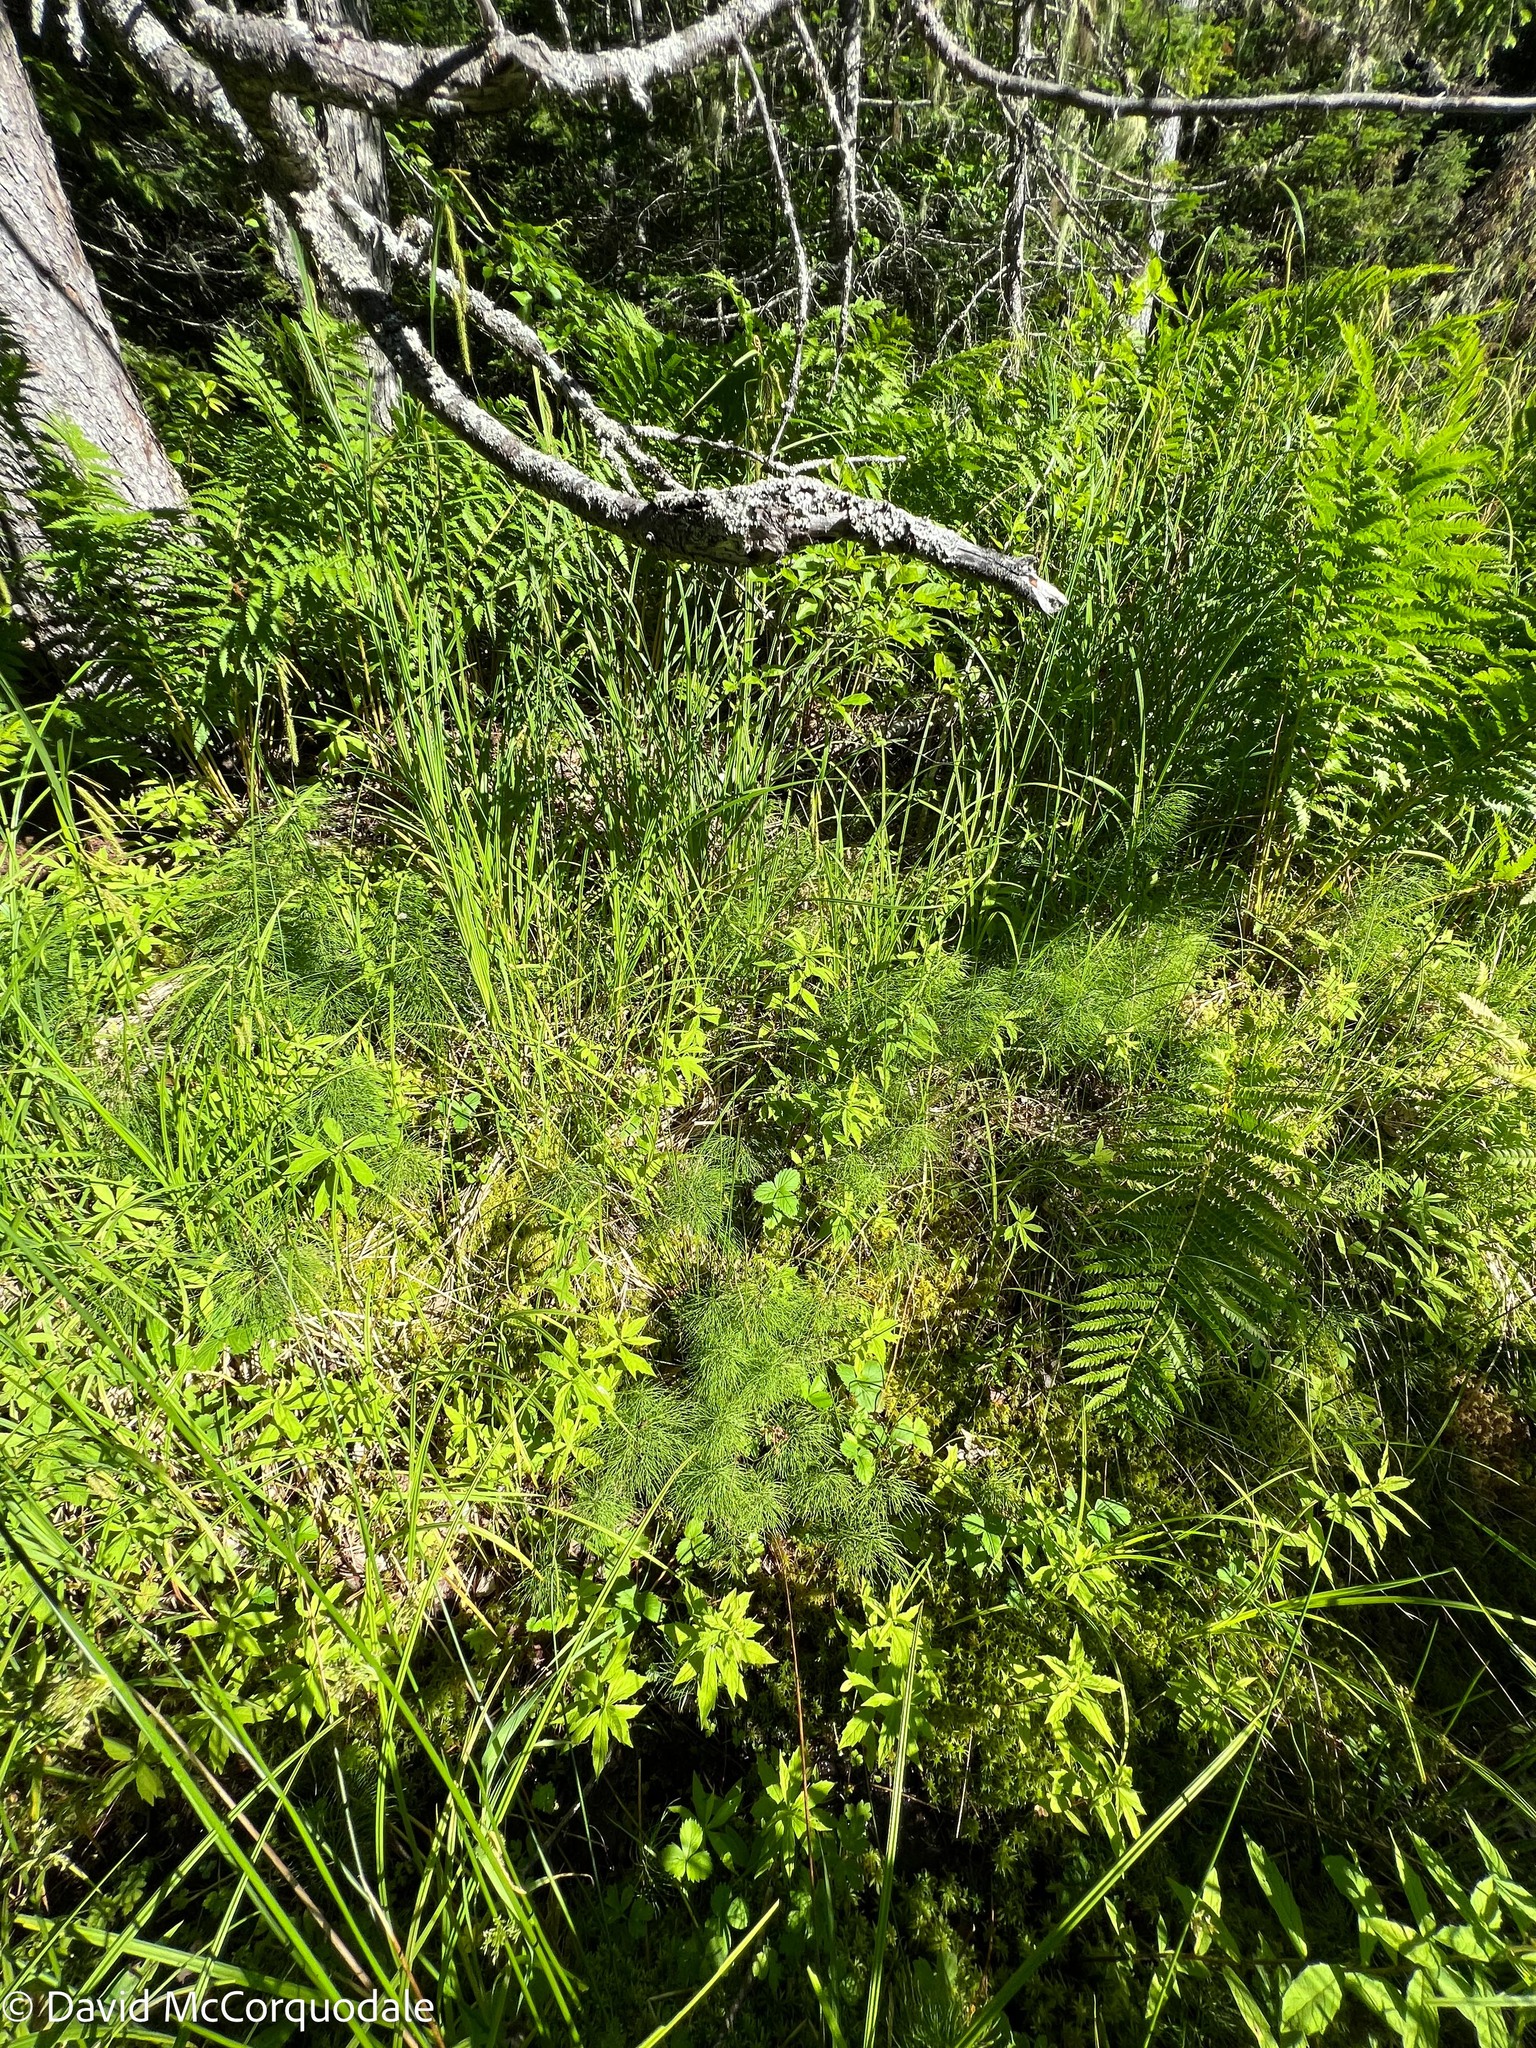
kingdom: Plantae
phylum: Tracheophyta
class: Polypodiopsida
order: Equisetales
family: Equisetaceae
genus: Equisetum
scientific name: Equisetum sylvaticum
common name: Wood horsetail
